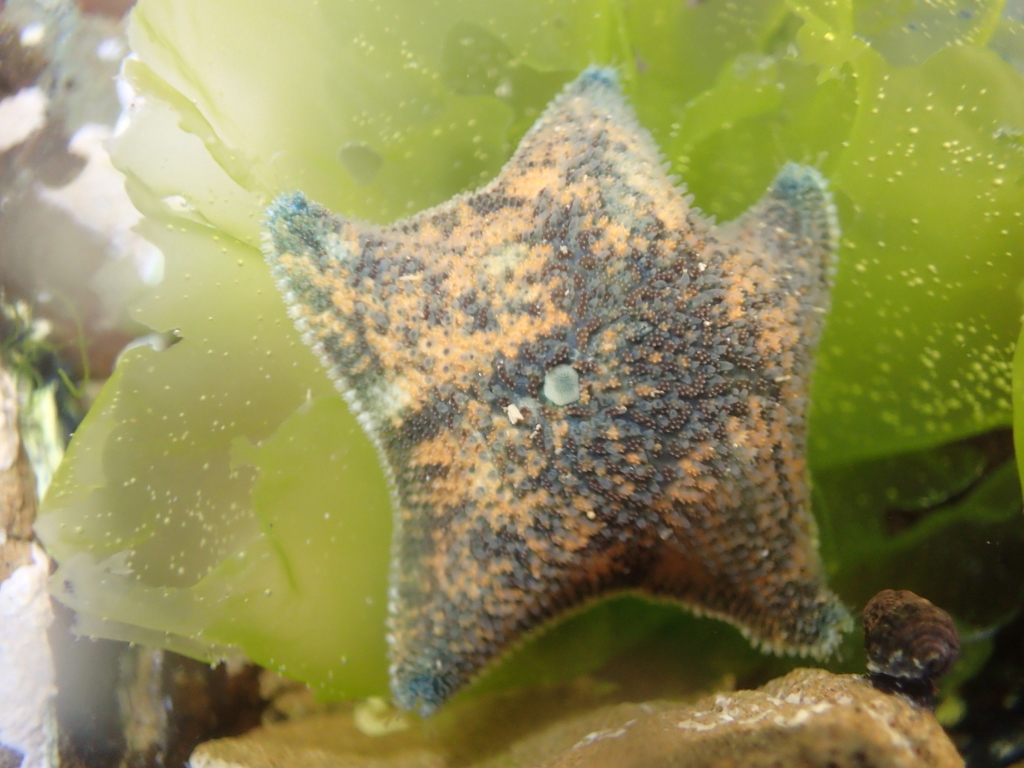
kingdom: Animalia
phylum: Echinodermata
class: Asteroidea
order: Valvatida
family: Asterinidae
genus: Patiriella
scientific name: Patiriella regularis
